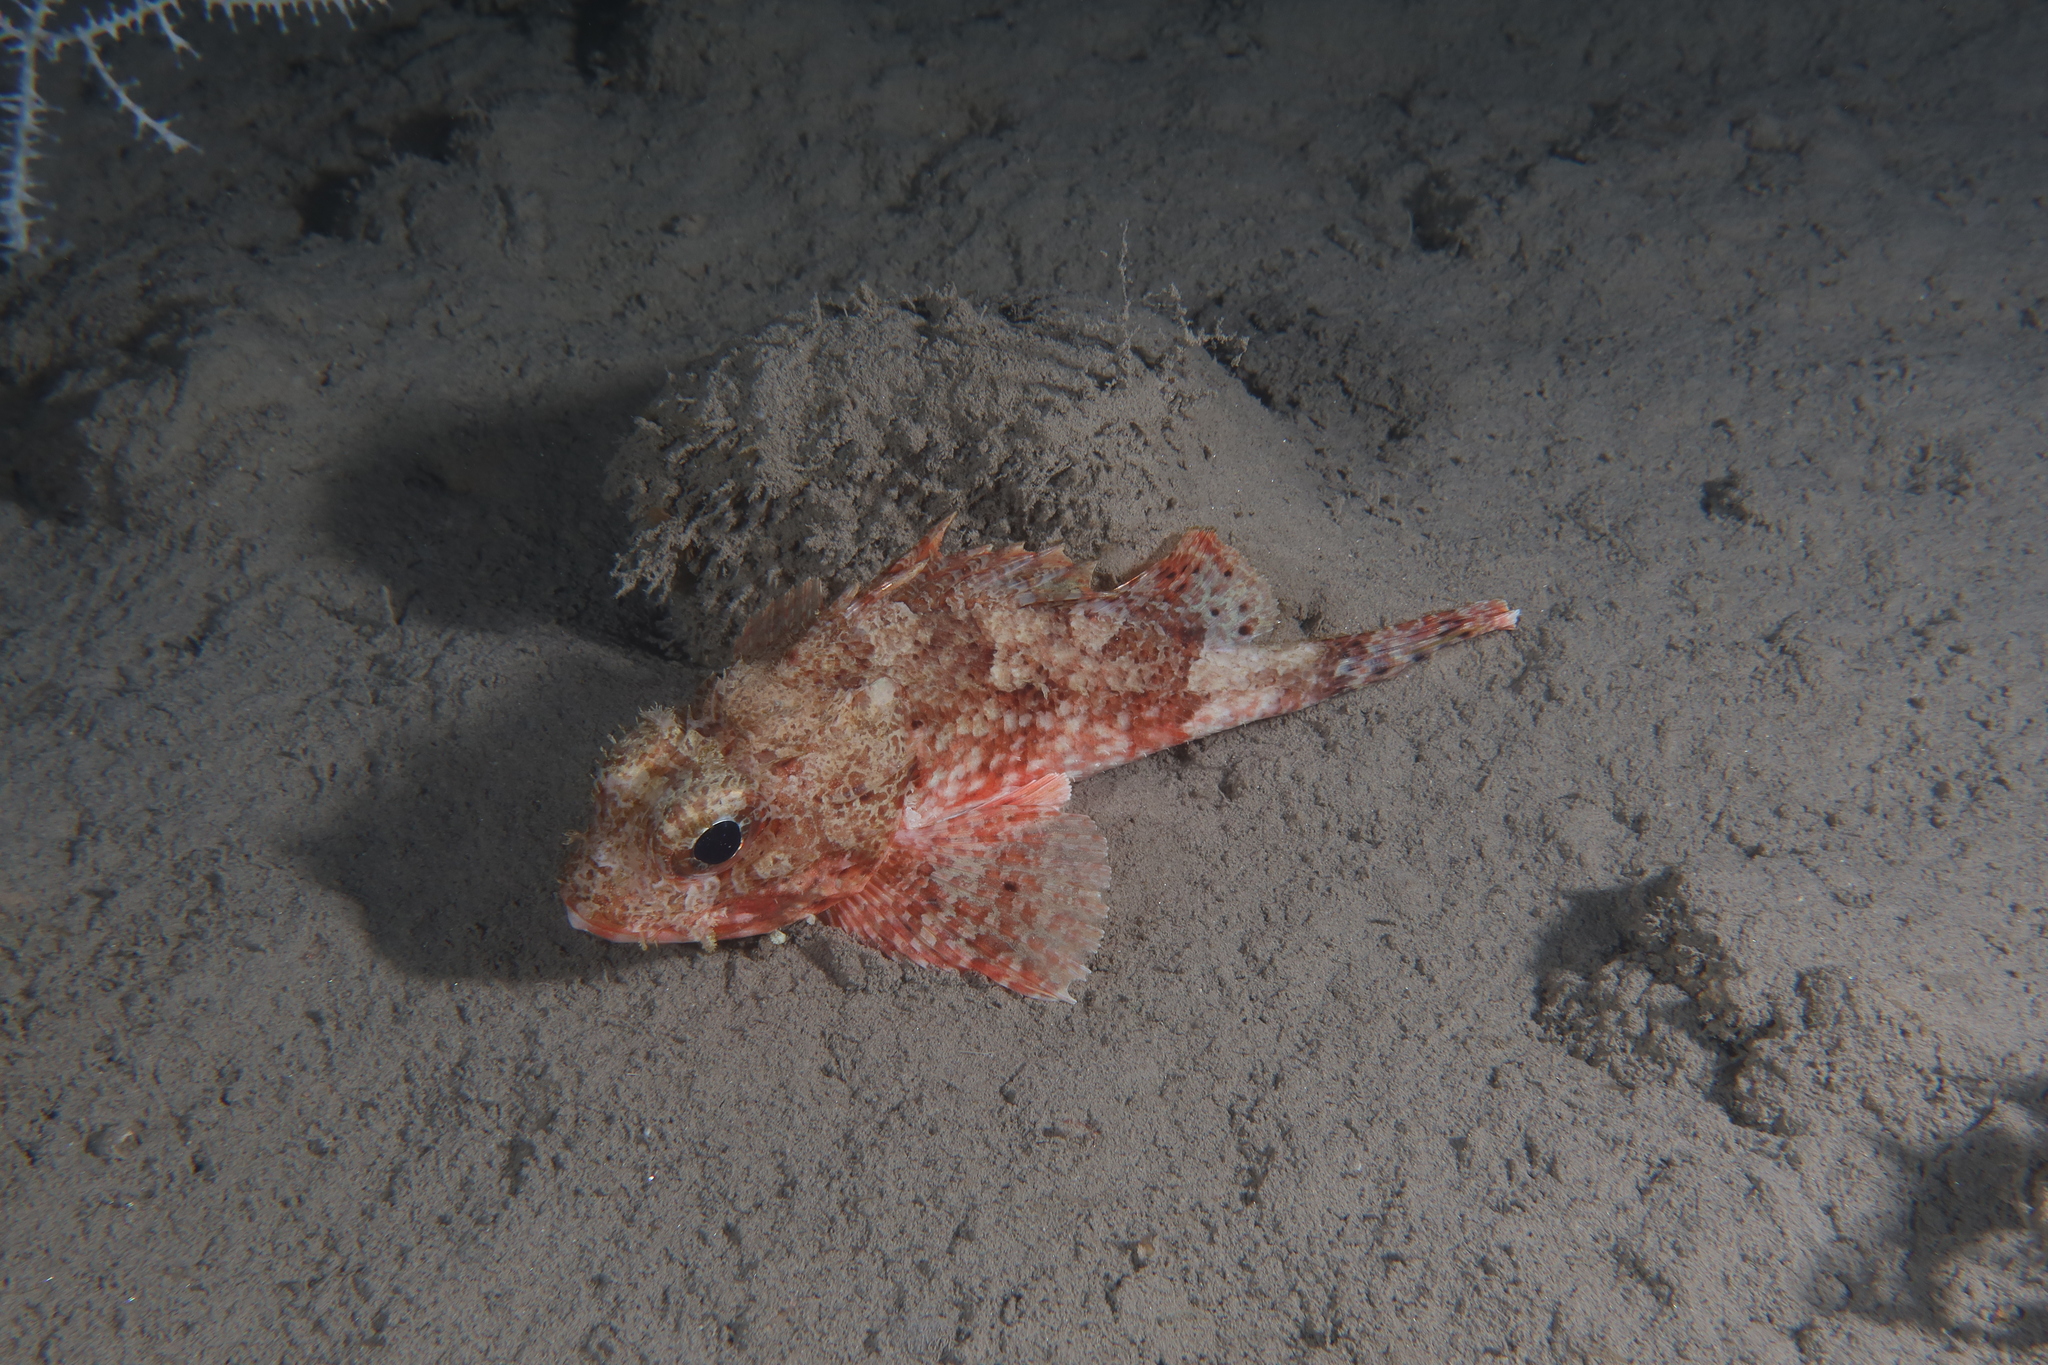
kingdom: Animalia
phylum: Chordata
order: Scorpaeniformes
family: Scorpaenidae
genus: Scorpaena
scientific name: Scorpaena notata
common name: Small red scorpionfish
